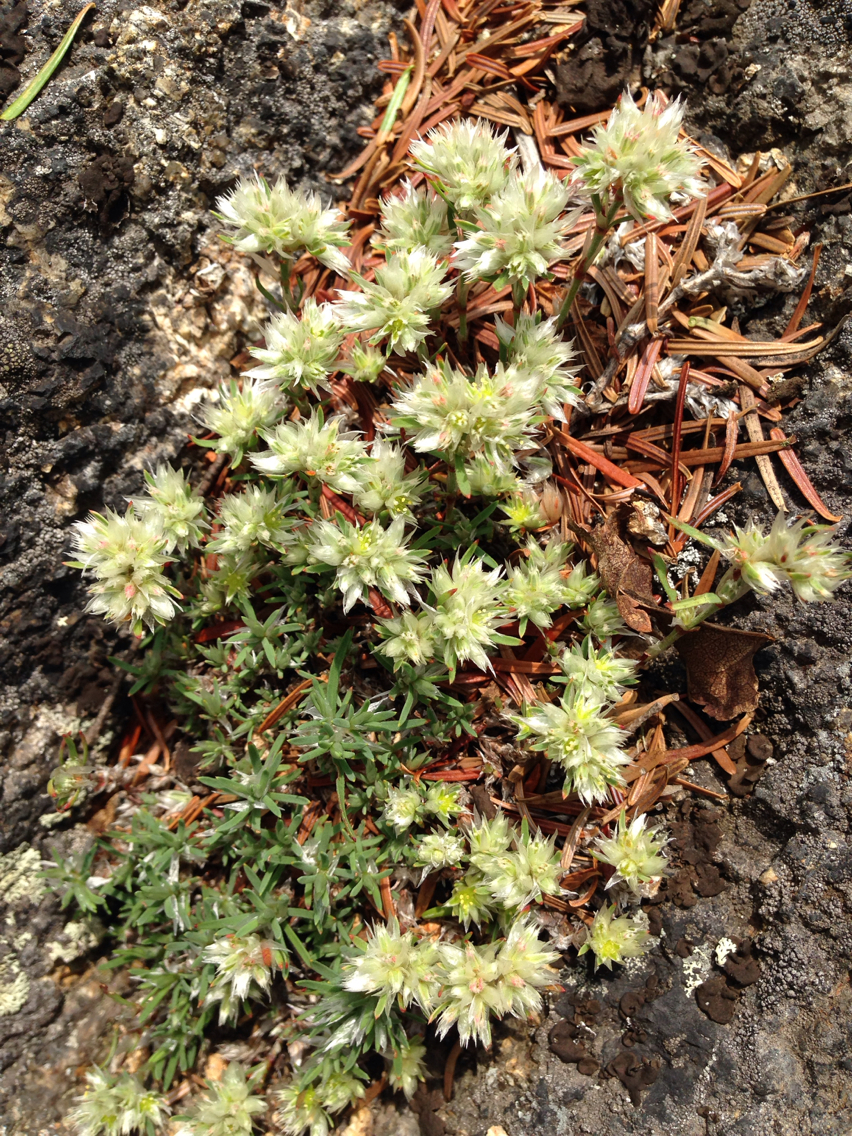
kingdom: Plantae
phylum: Tracheophyta
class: Magnoliopsida
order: Caryophyllales
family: Caryophyllaceae
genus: Paronychia
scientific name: Paronychia argyrocoma
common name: Silverling
